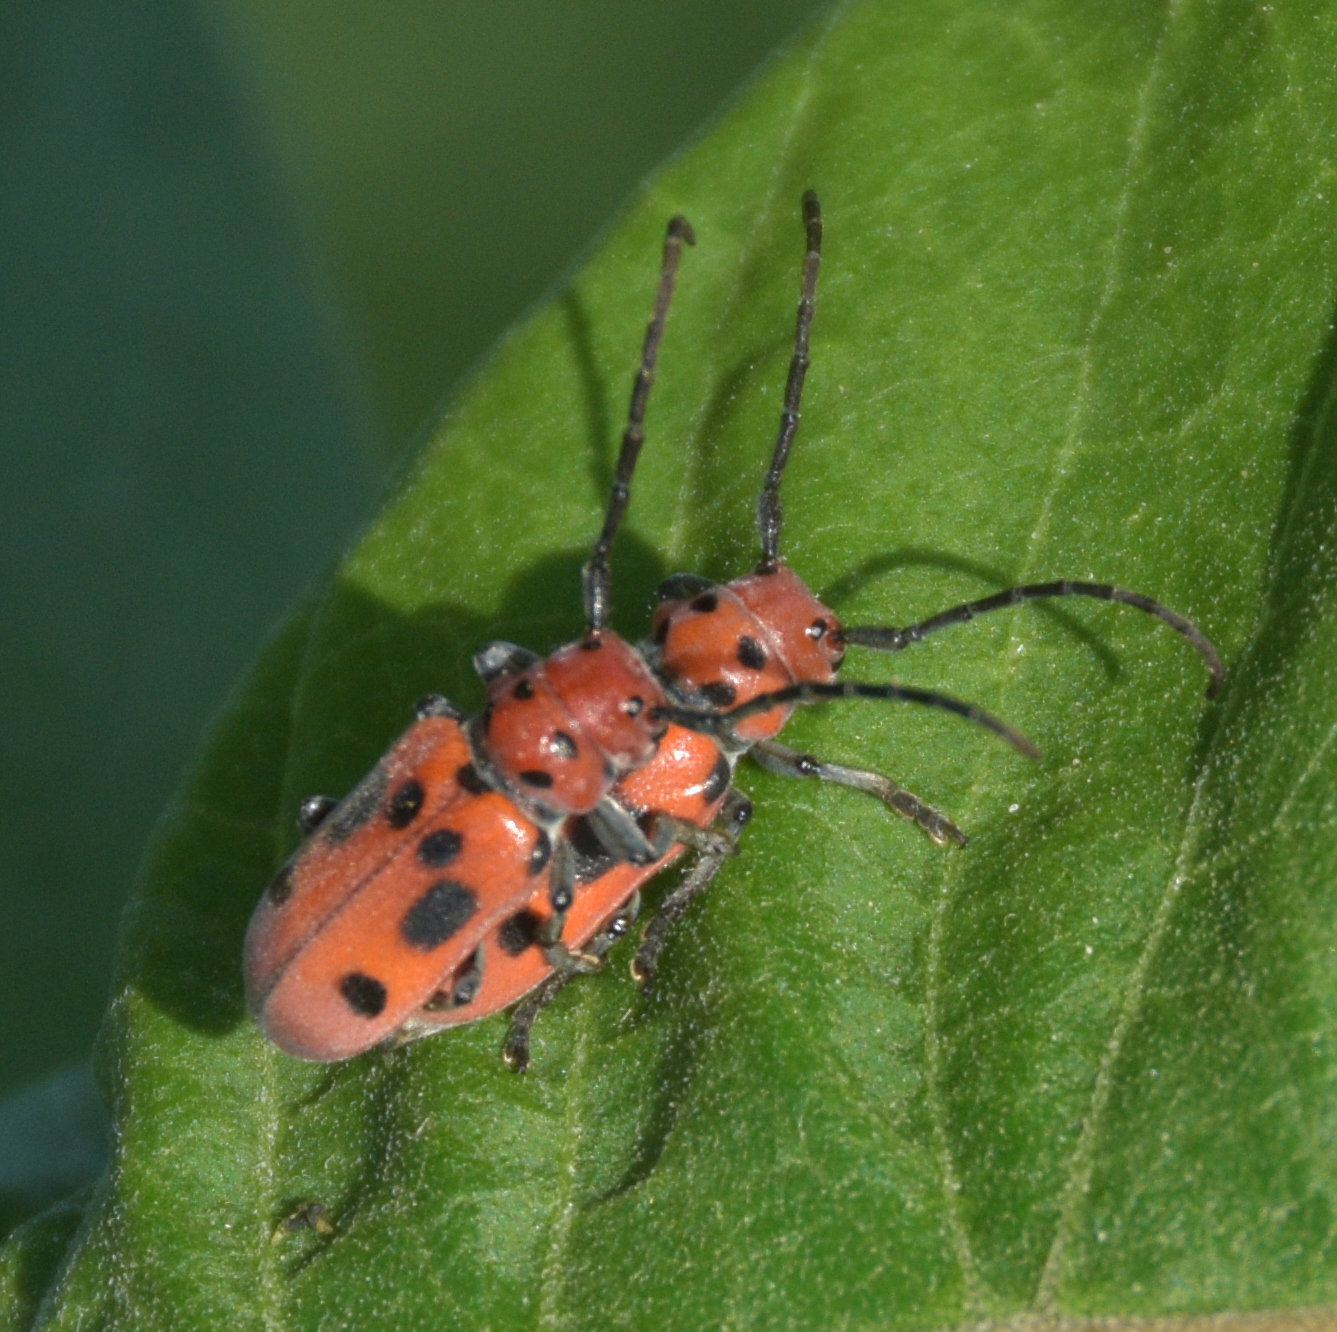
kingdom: Animalia
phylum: Arthropoda
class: Insecta
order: Coleoptera
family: Cerambycidae
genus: Tetraopes
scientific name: Tetraopes tetrophthalmus
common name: Red milkweed beetle
